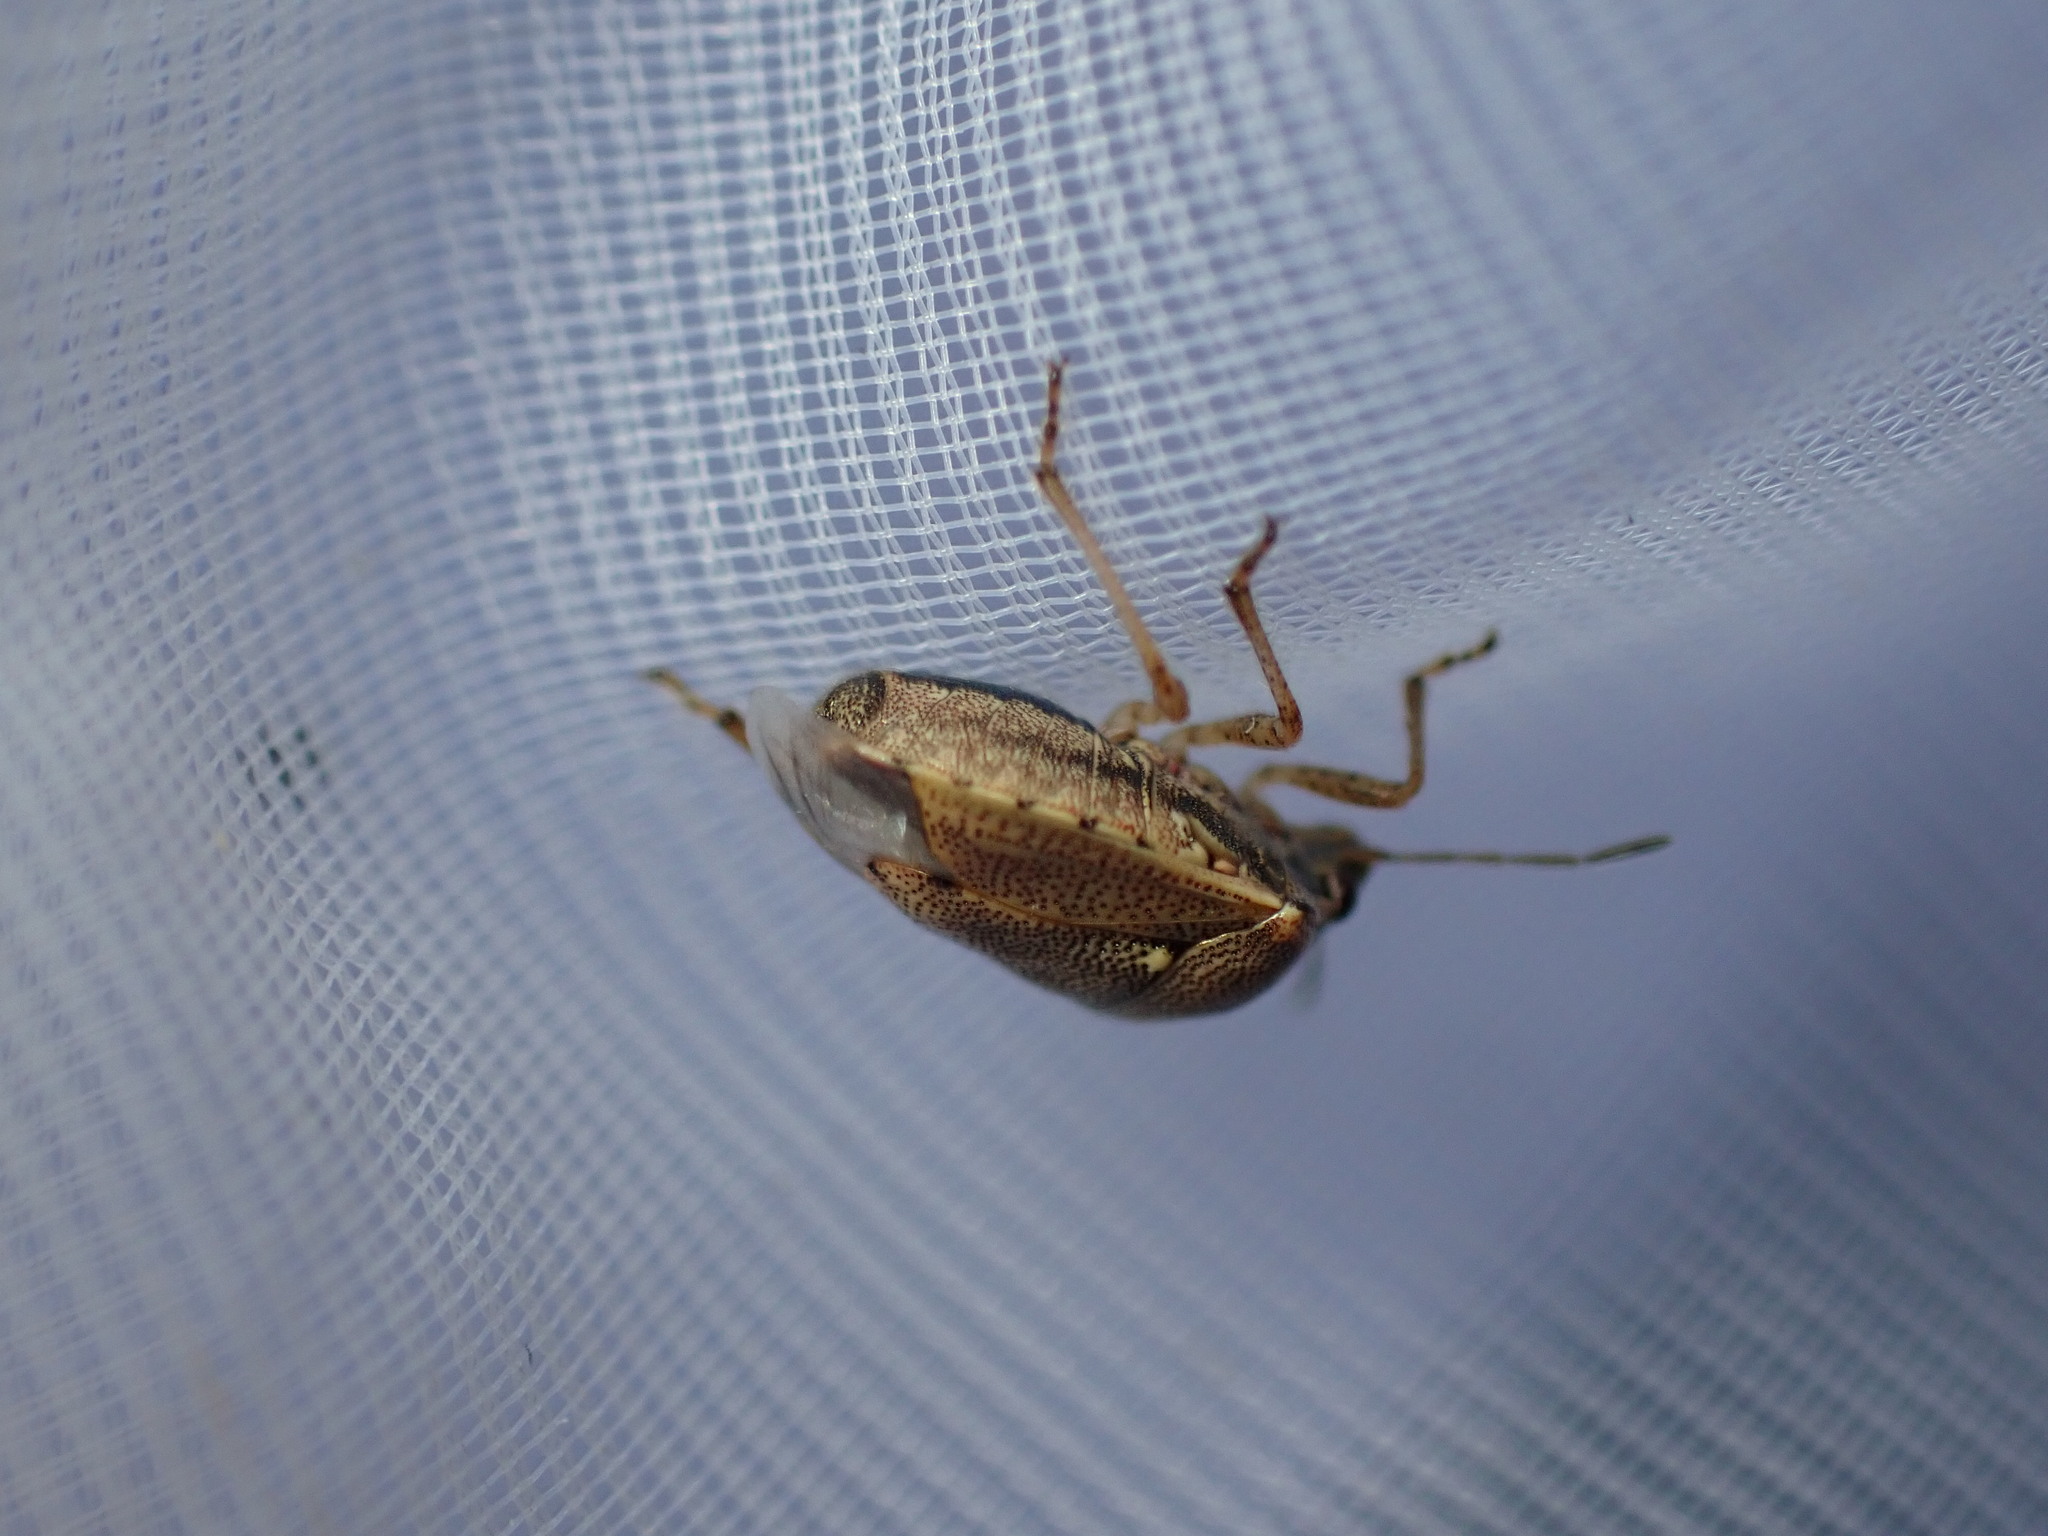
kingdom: Animalia
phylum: Arthropoda
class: Insecta
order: Hemiptera
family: Pentatomidae
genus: Eysarcoris
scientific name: Eysarcoris ventralis
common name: White-spotted stink bug
